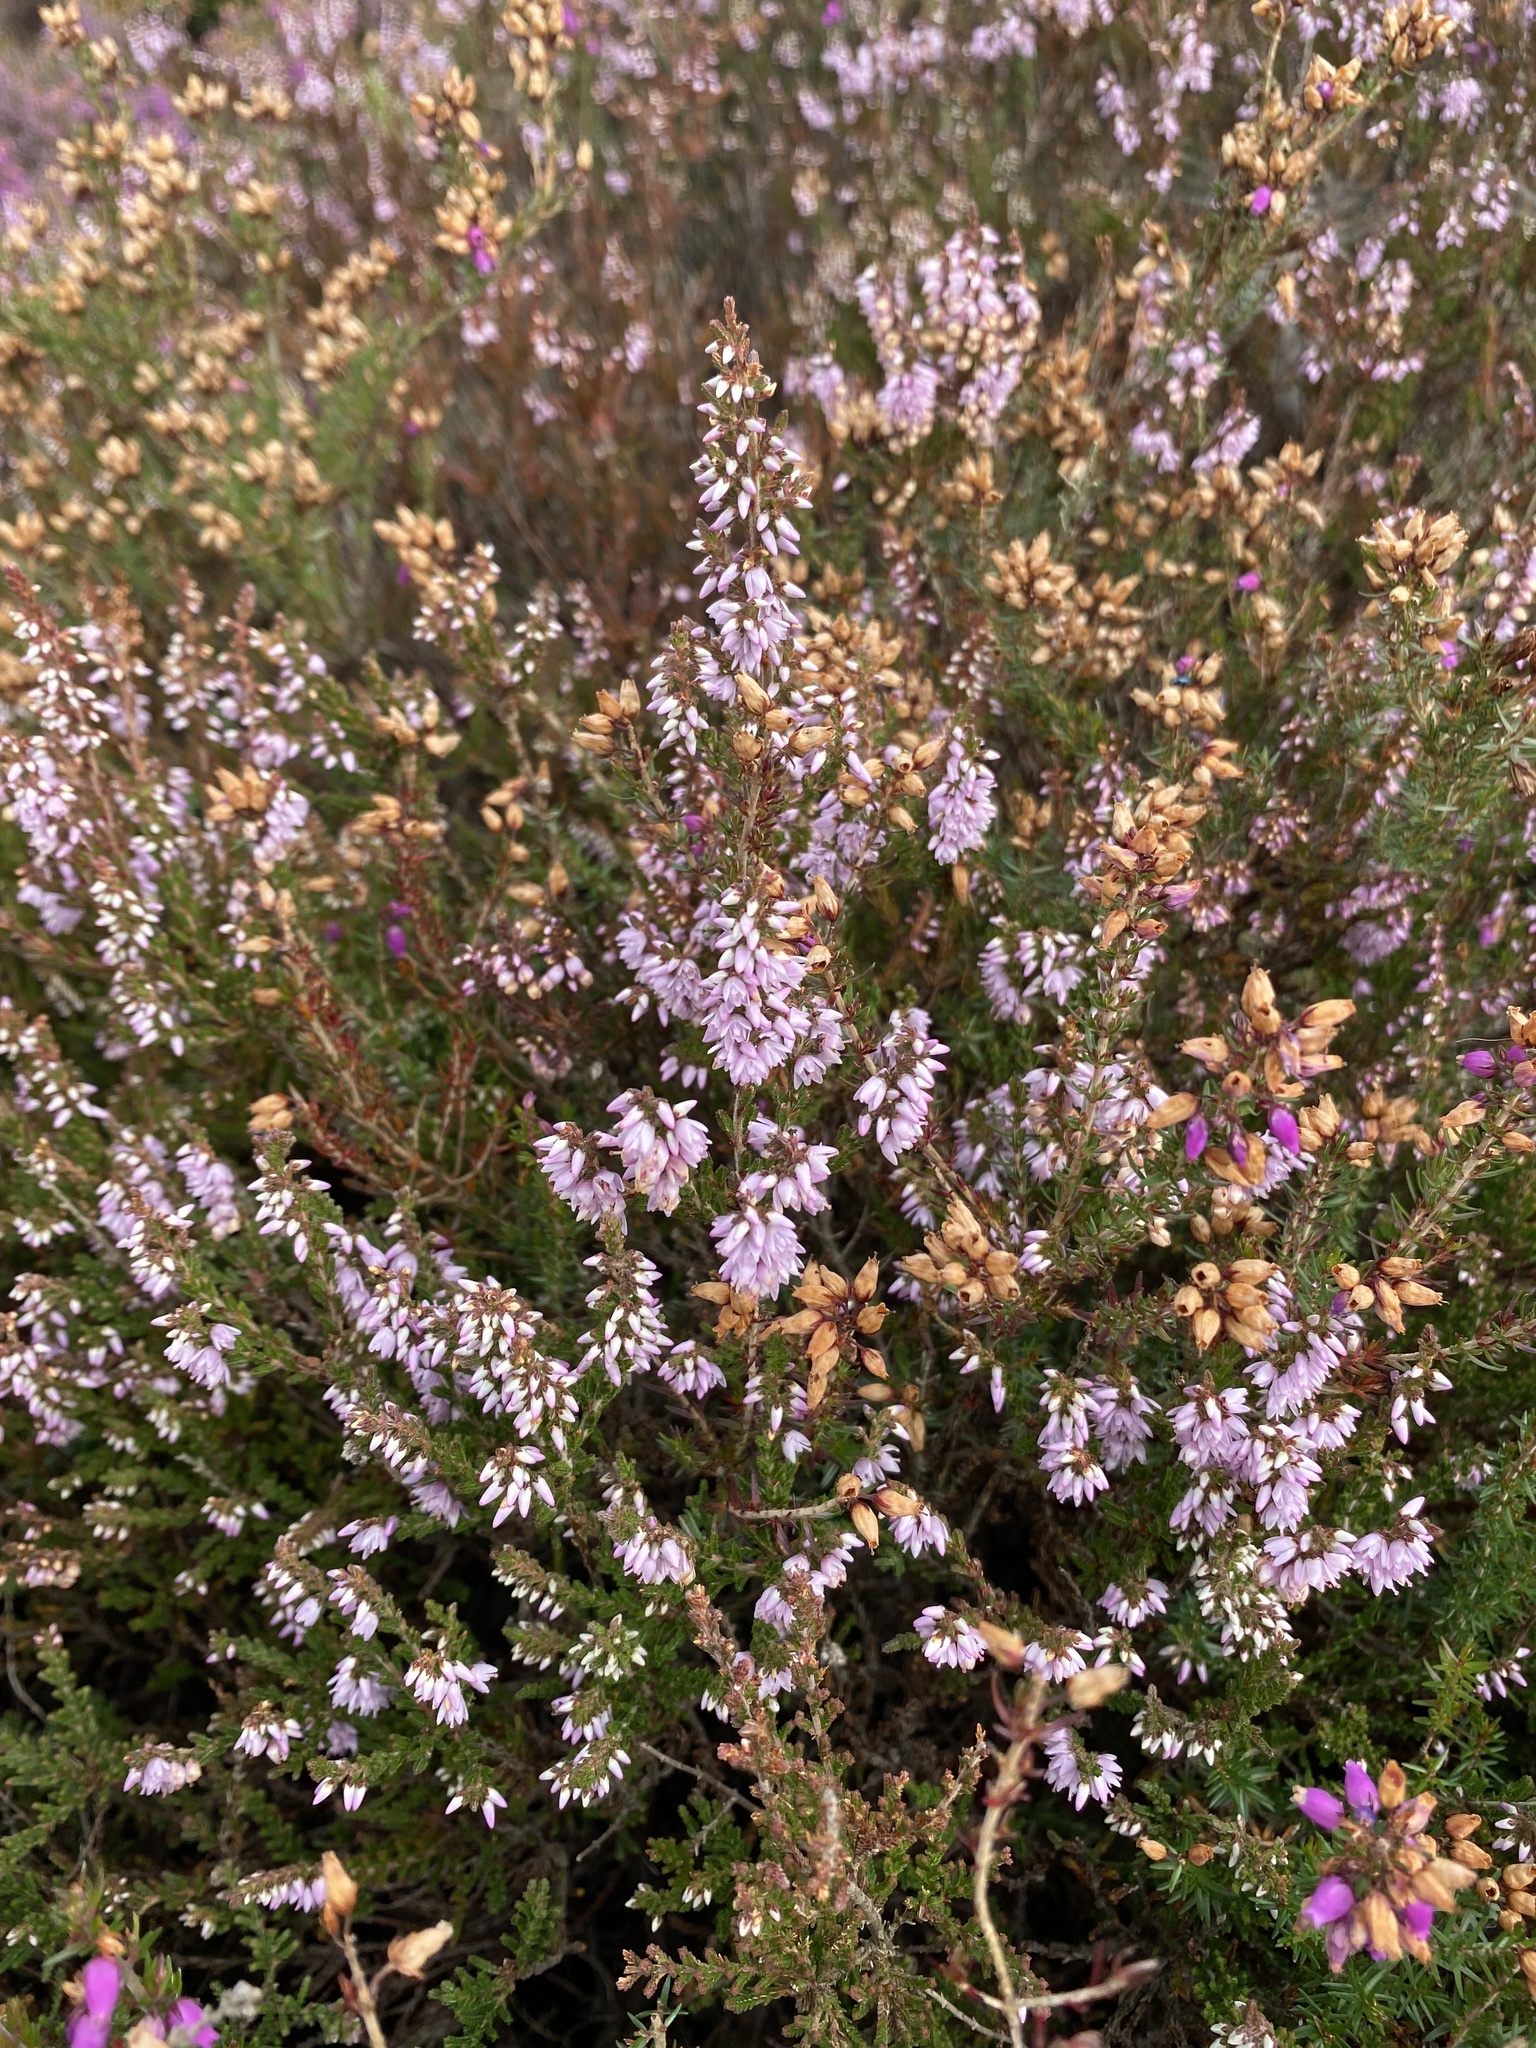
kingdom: Plantae
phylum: Tracheophyta
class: Magnoliopsida
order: Ericales
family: Ericaceae
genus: Calluna
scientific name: Calluna vulgaris
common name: Heather
